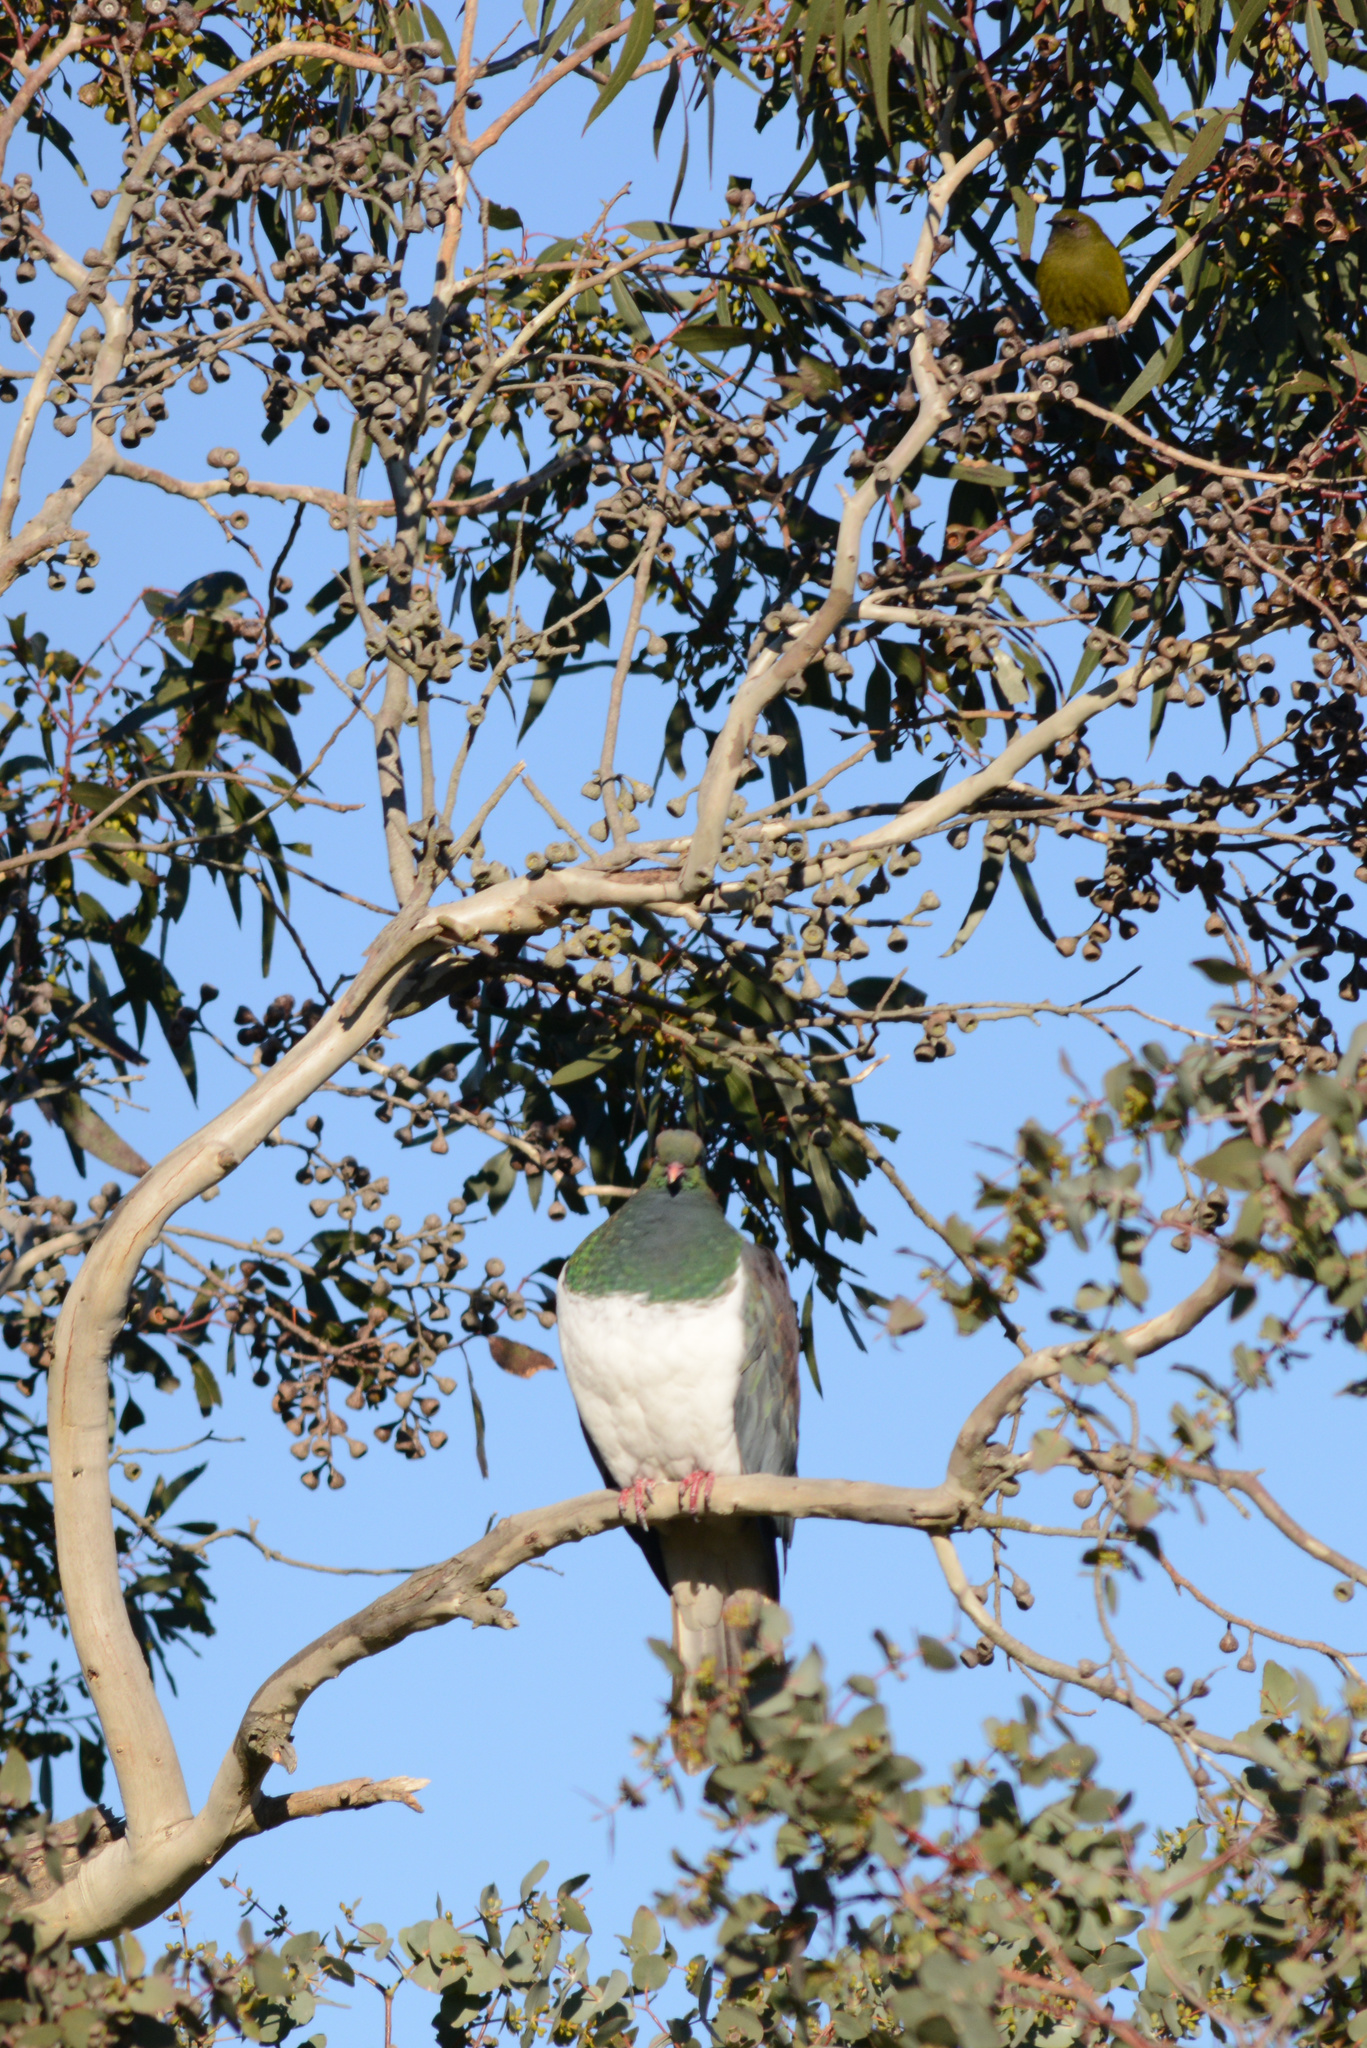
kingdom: Animalia
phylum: Chordata
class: Aves
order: Columbiformes
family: Columbidae
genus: Hemiphaga
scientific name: Hemiphaga novaeseelandiae
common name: New zealand pigeon
